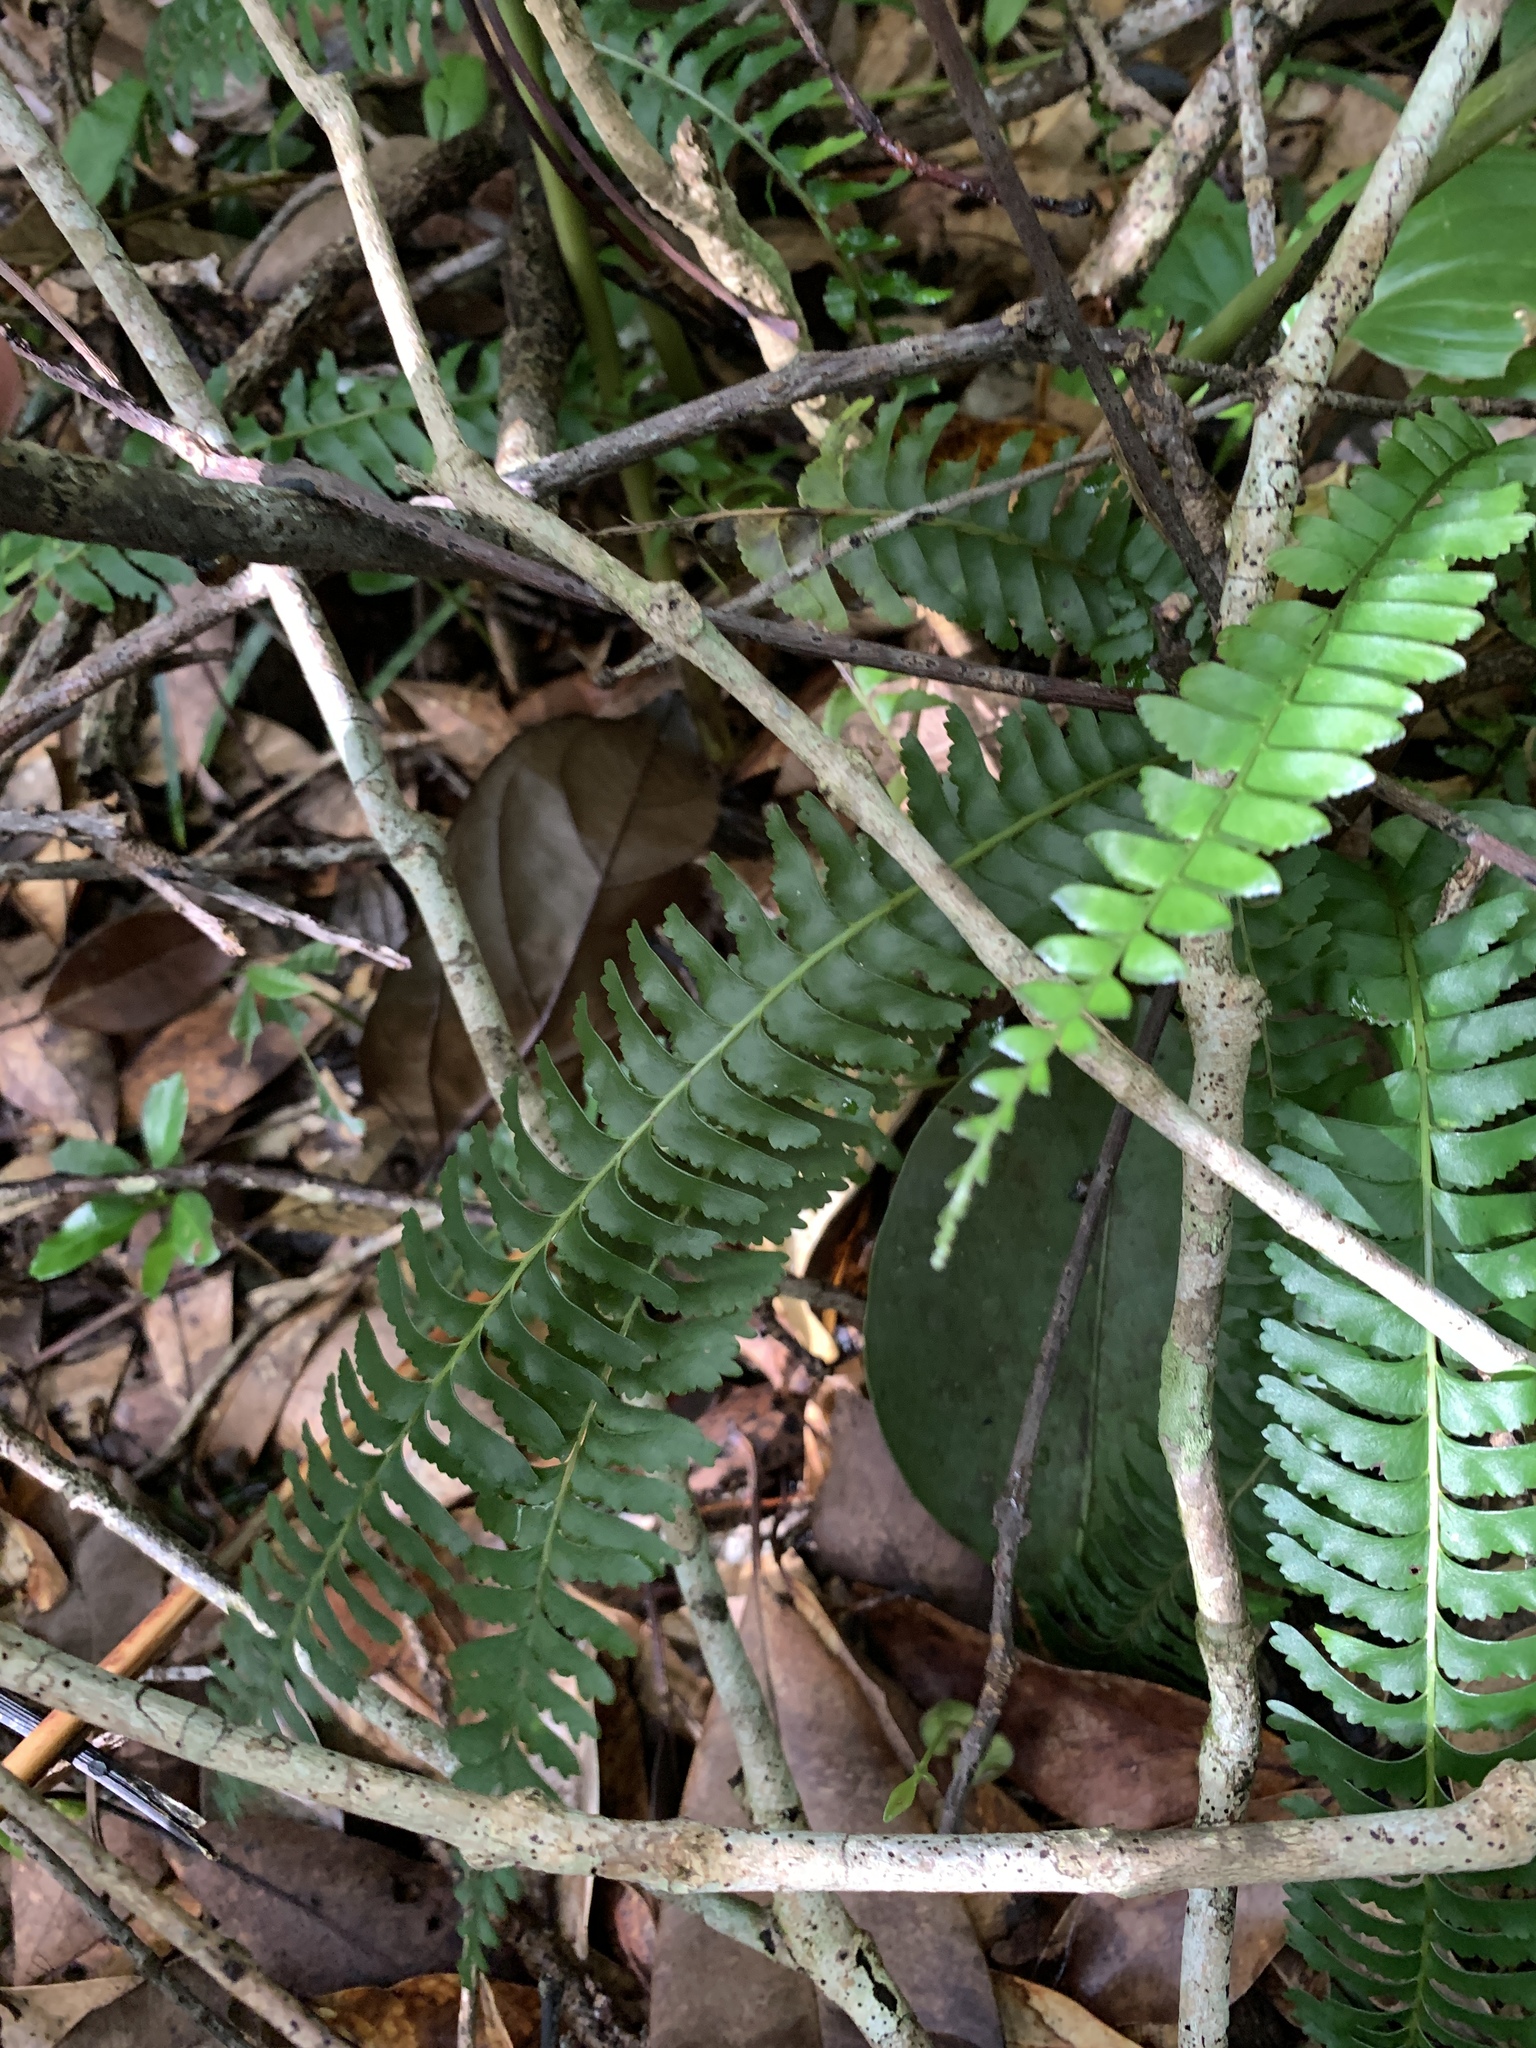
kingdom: Plantae
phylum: Tracheophyta
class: Polypodiopsida
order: Polypodiales
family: Lindsaeaceae
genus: Lindsaea
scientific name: Lindsaea yaeyamensis
